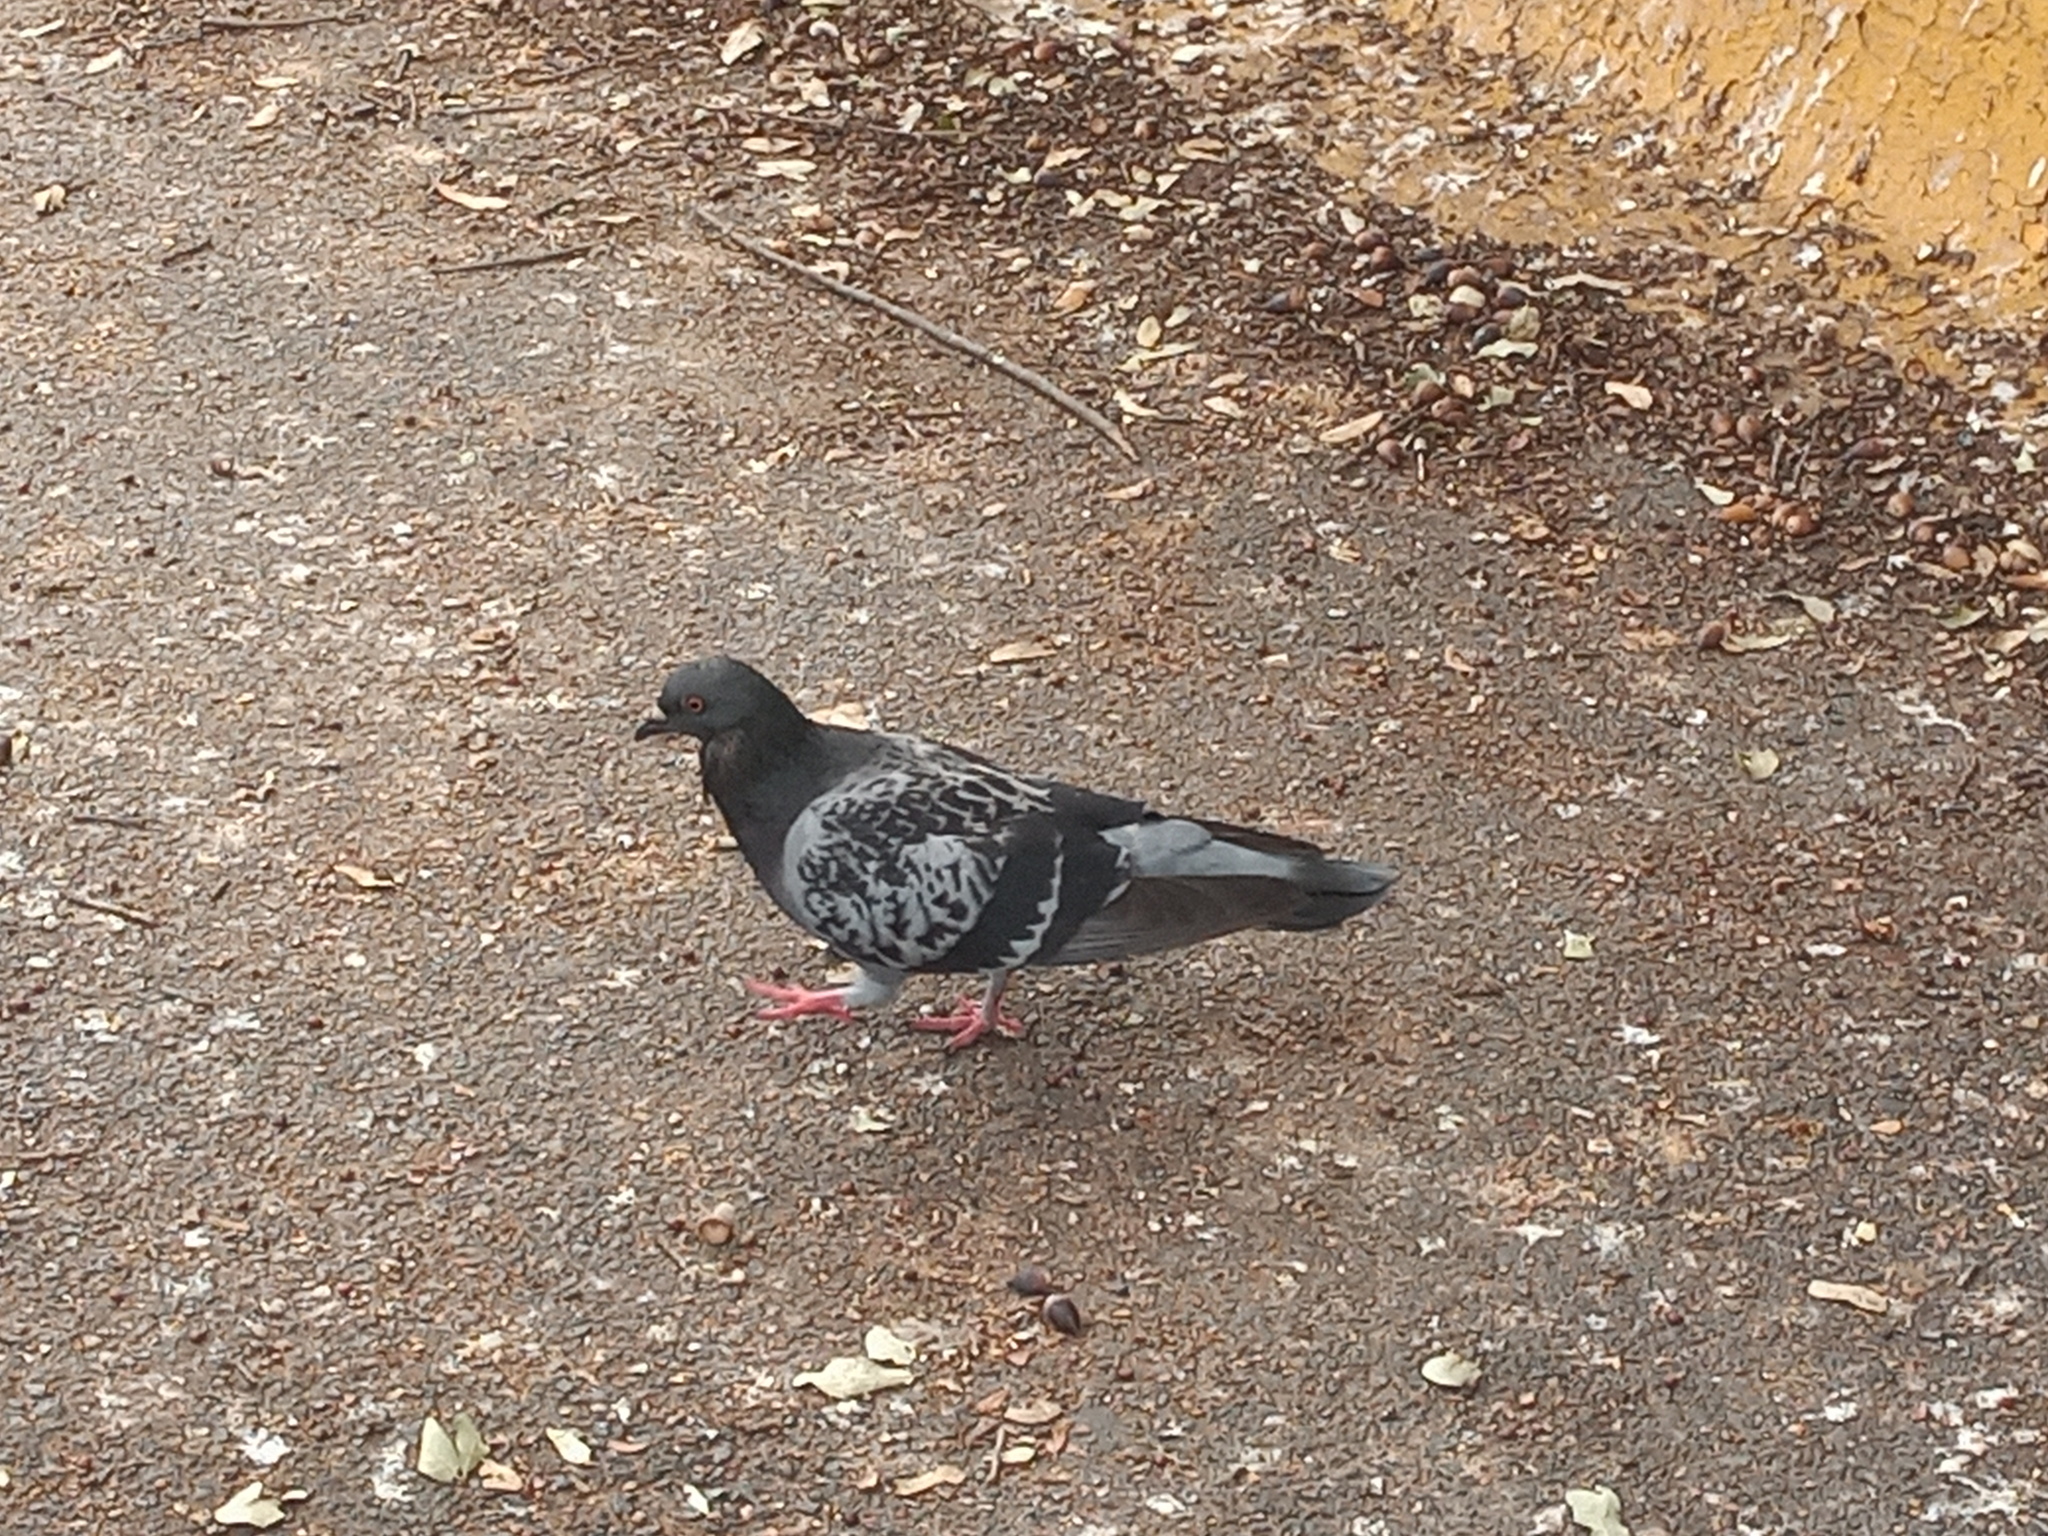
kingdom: Animalia
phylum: Chordata
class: Aves
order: Columbiformes
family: Columbidae
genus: Columba
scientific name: Columba livia
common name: Rock pigeon
